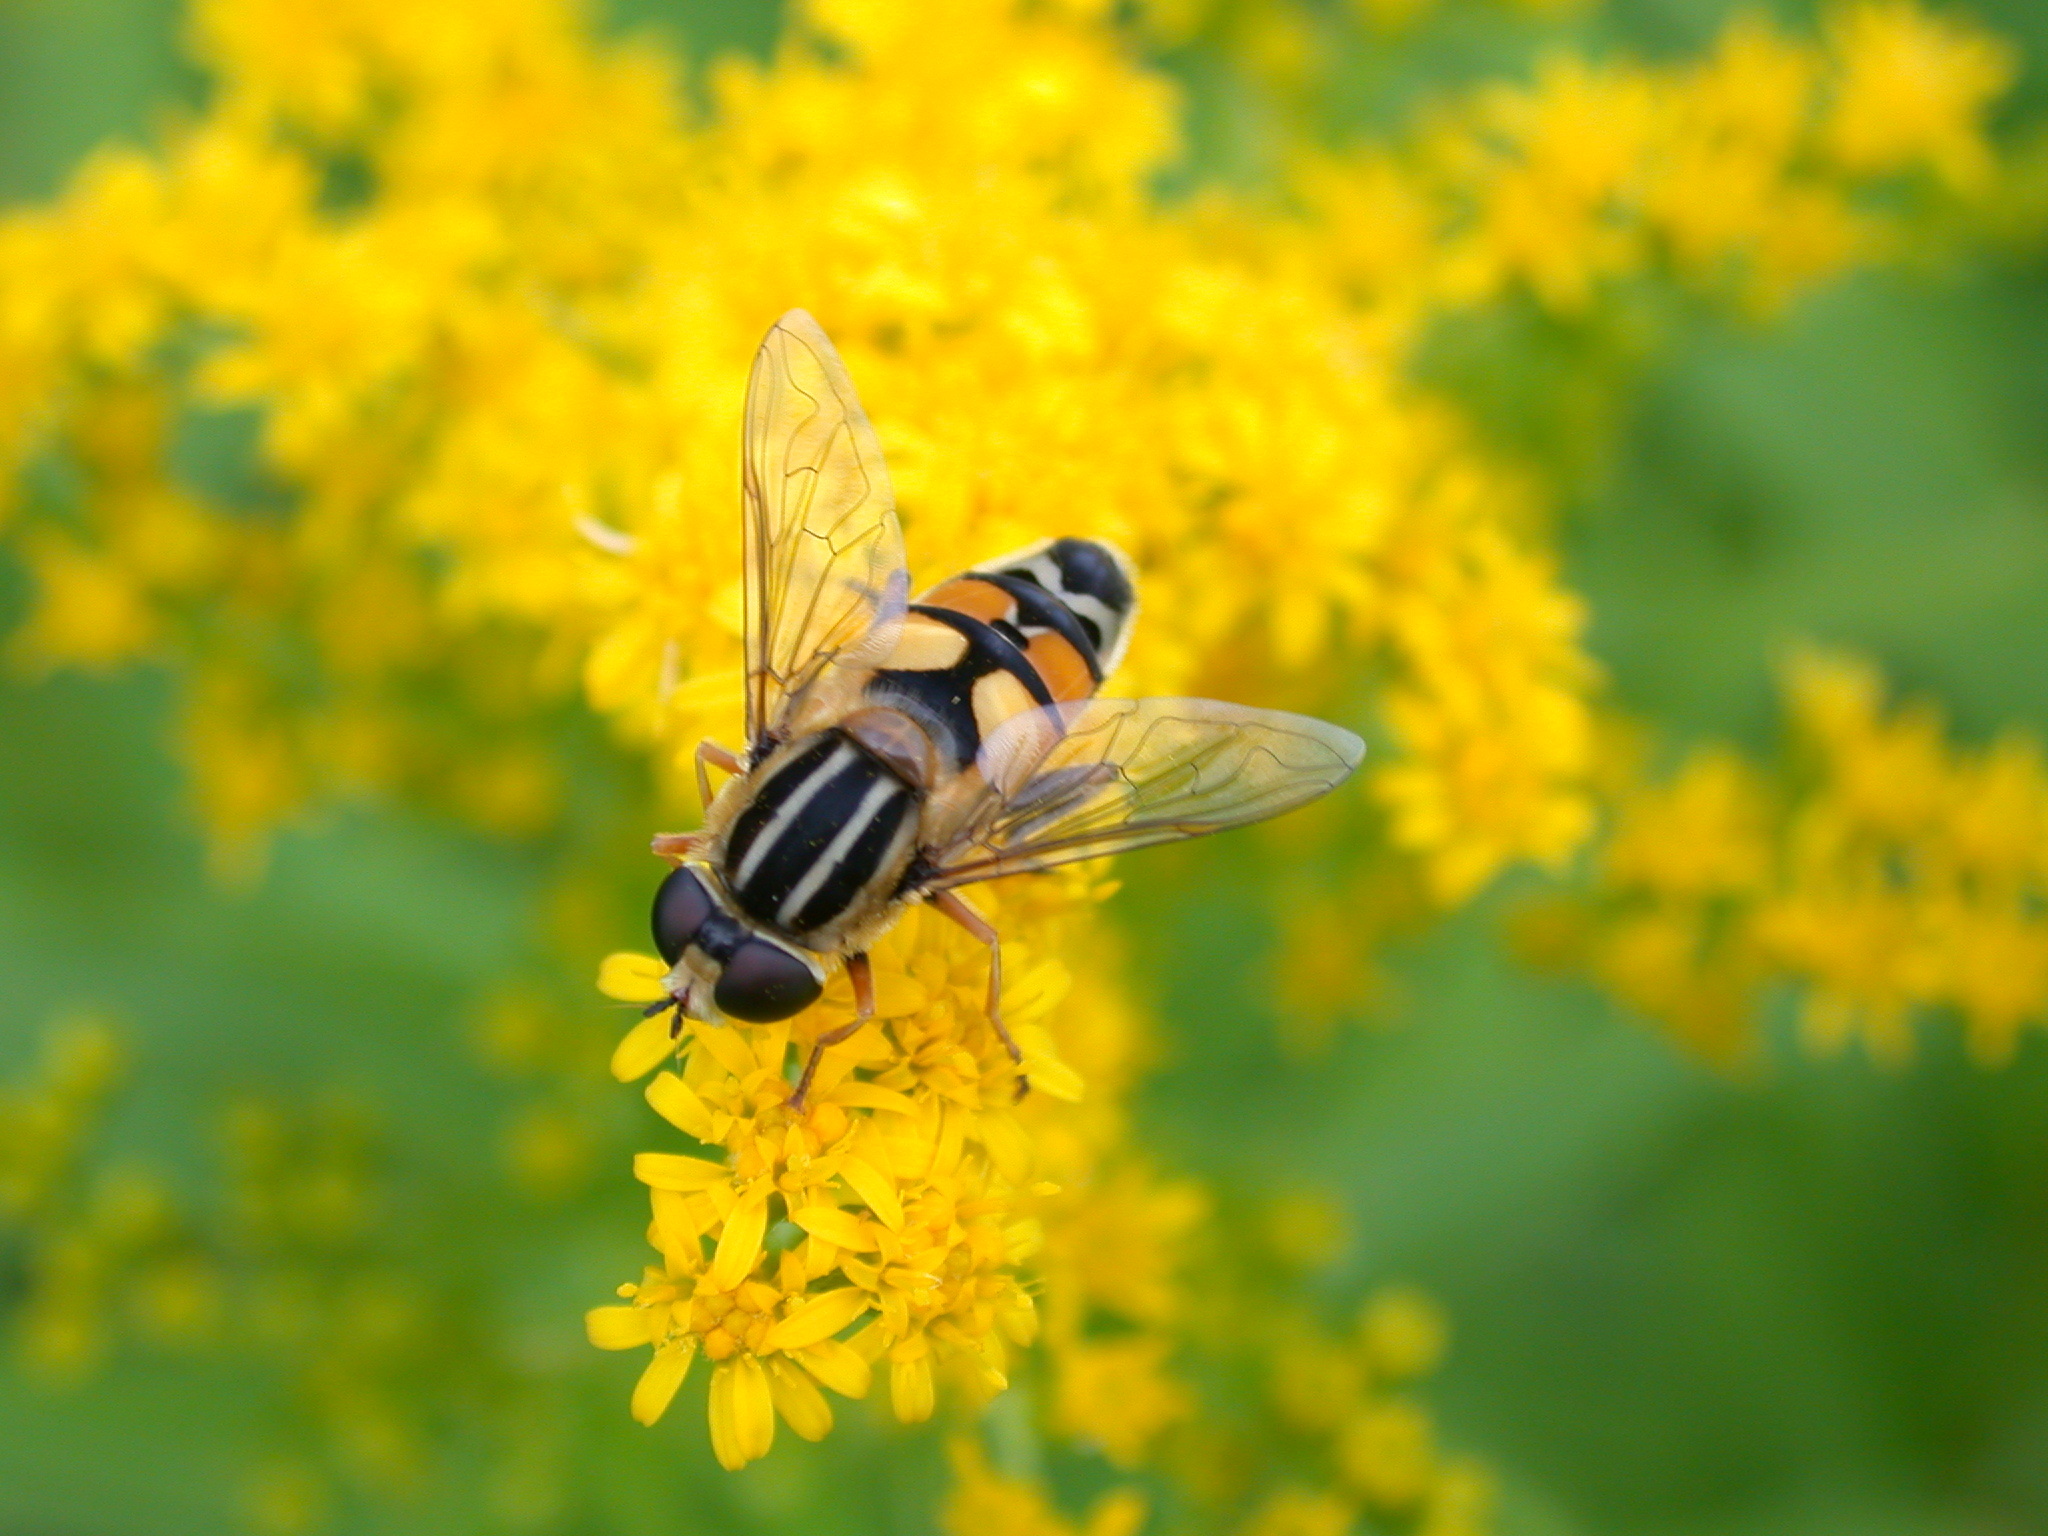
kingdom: Animalia
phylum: Arthropoda
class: Insecta
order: Diptera
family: Syrphidae
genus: Helophilus
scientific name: Helophilus trivittatus
